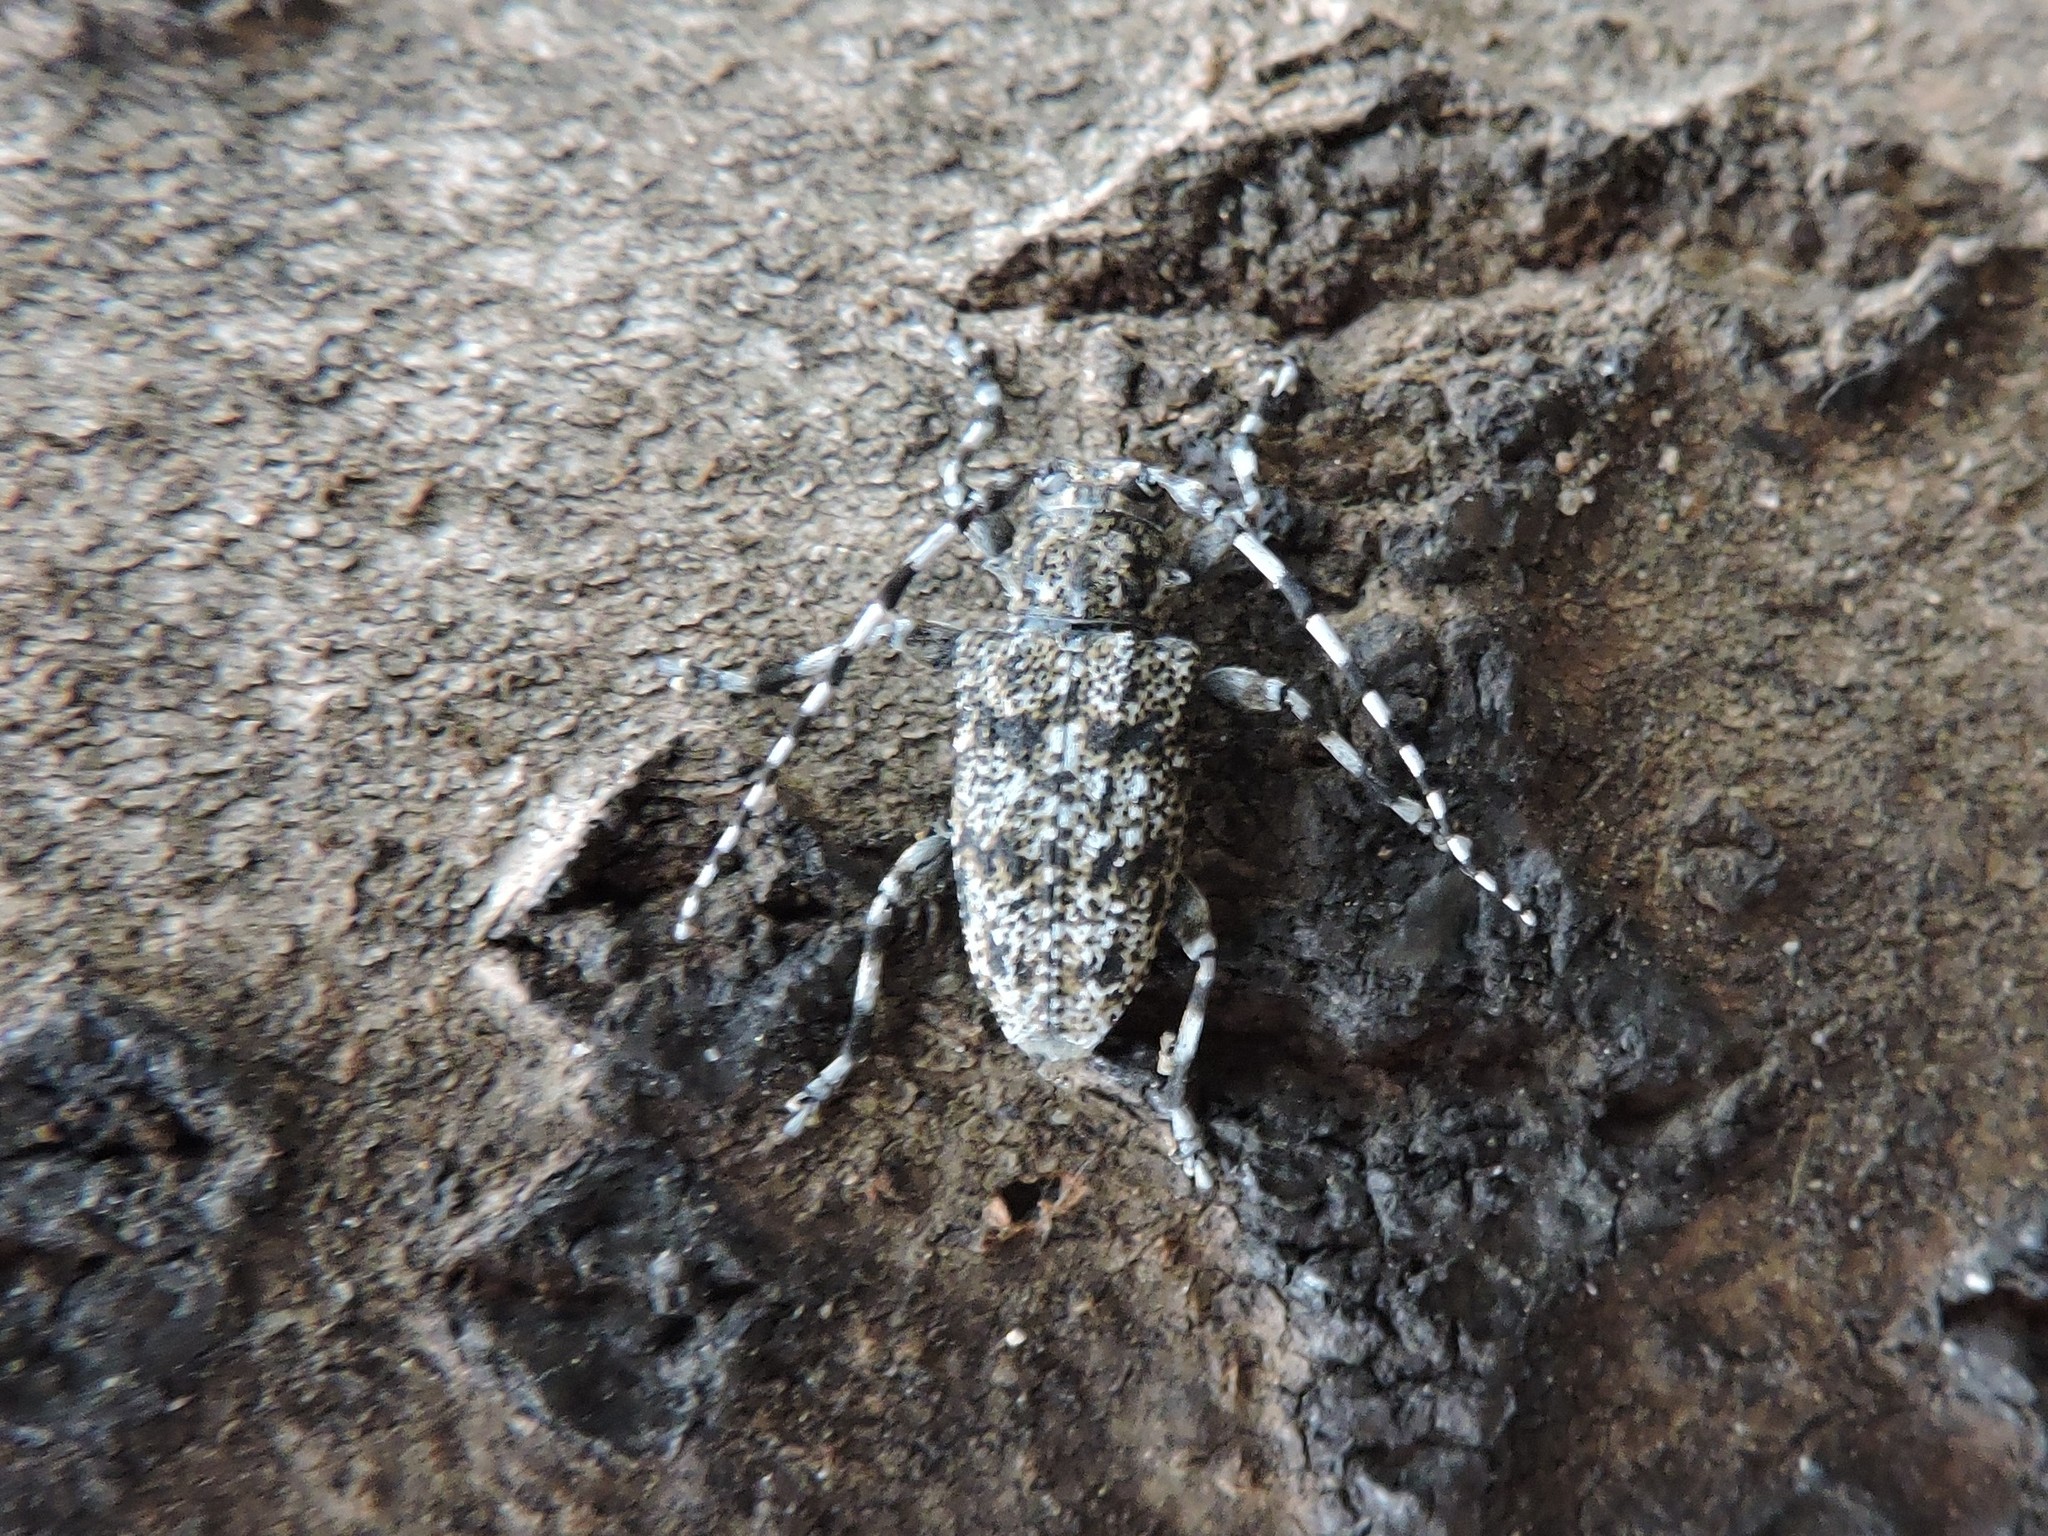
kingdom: Animalia
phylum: Arthropoda
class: Insecta
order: Coleoptera
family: Cerambycidae
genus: Aegomorphus
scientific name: Aegomorphus clavipes
